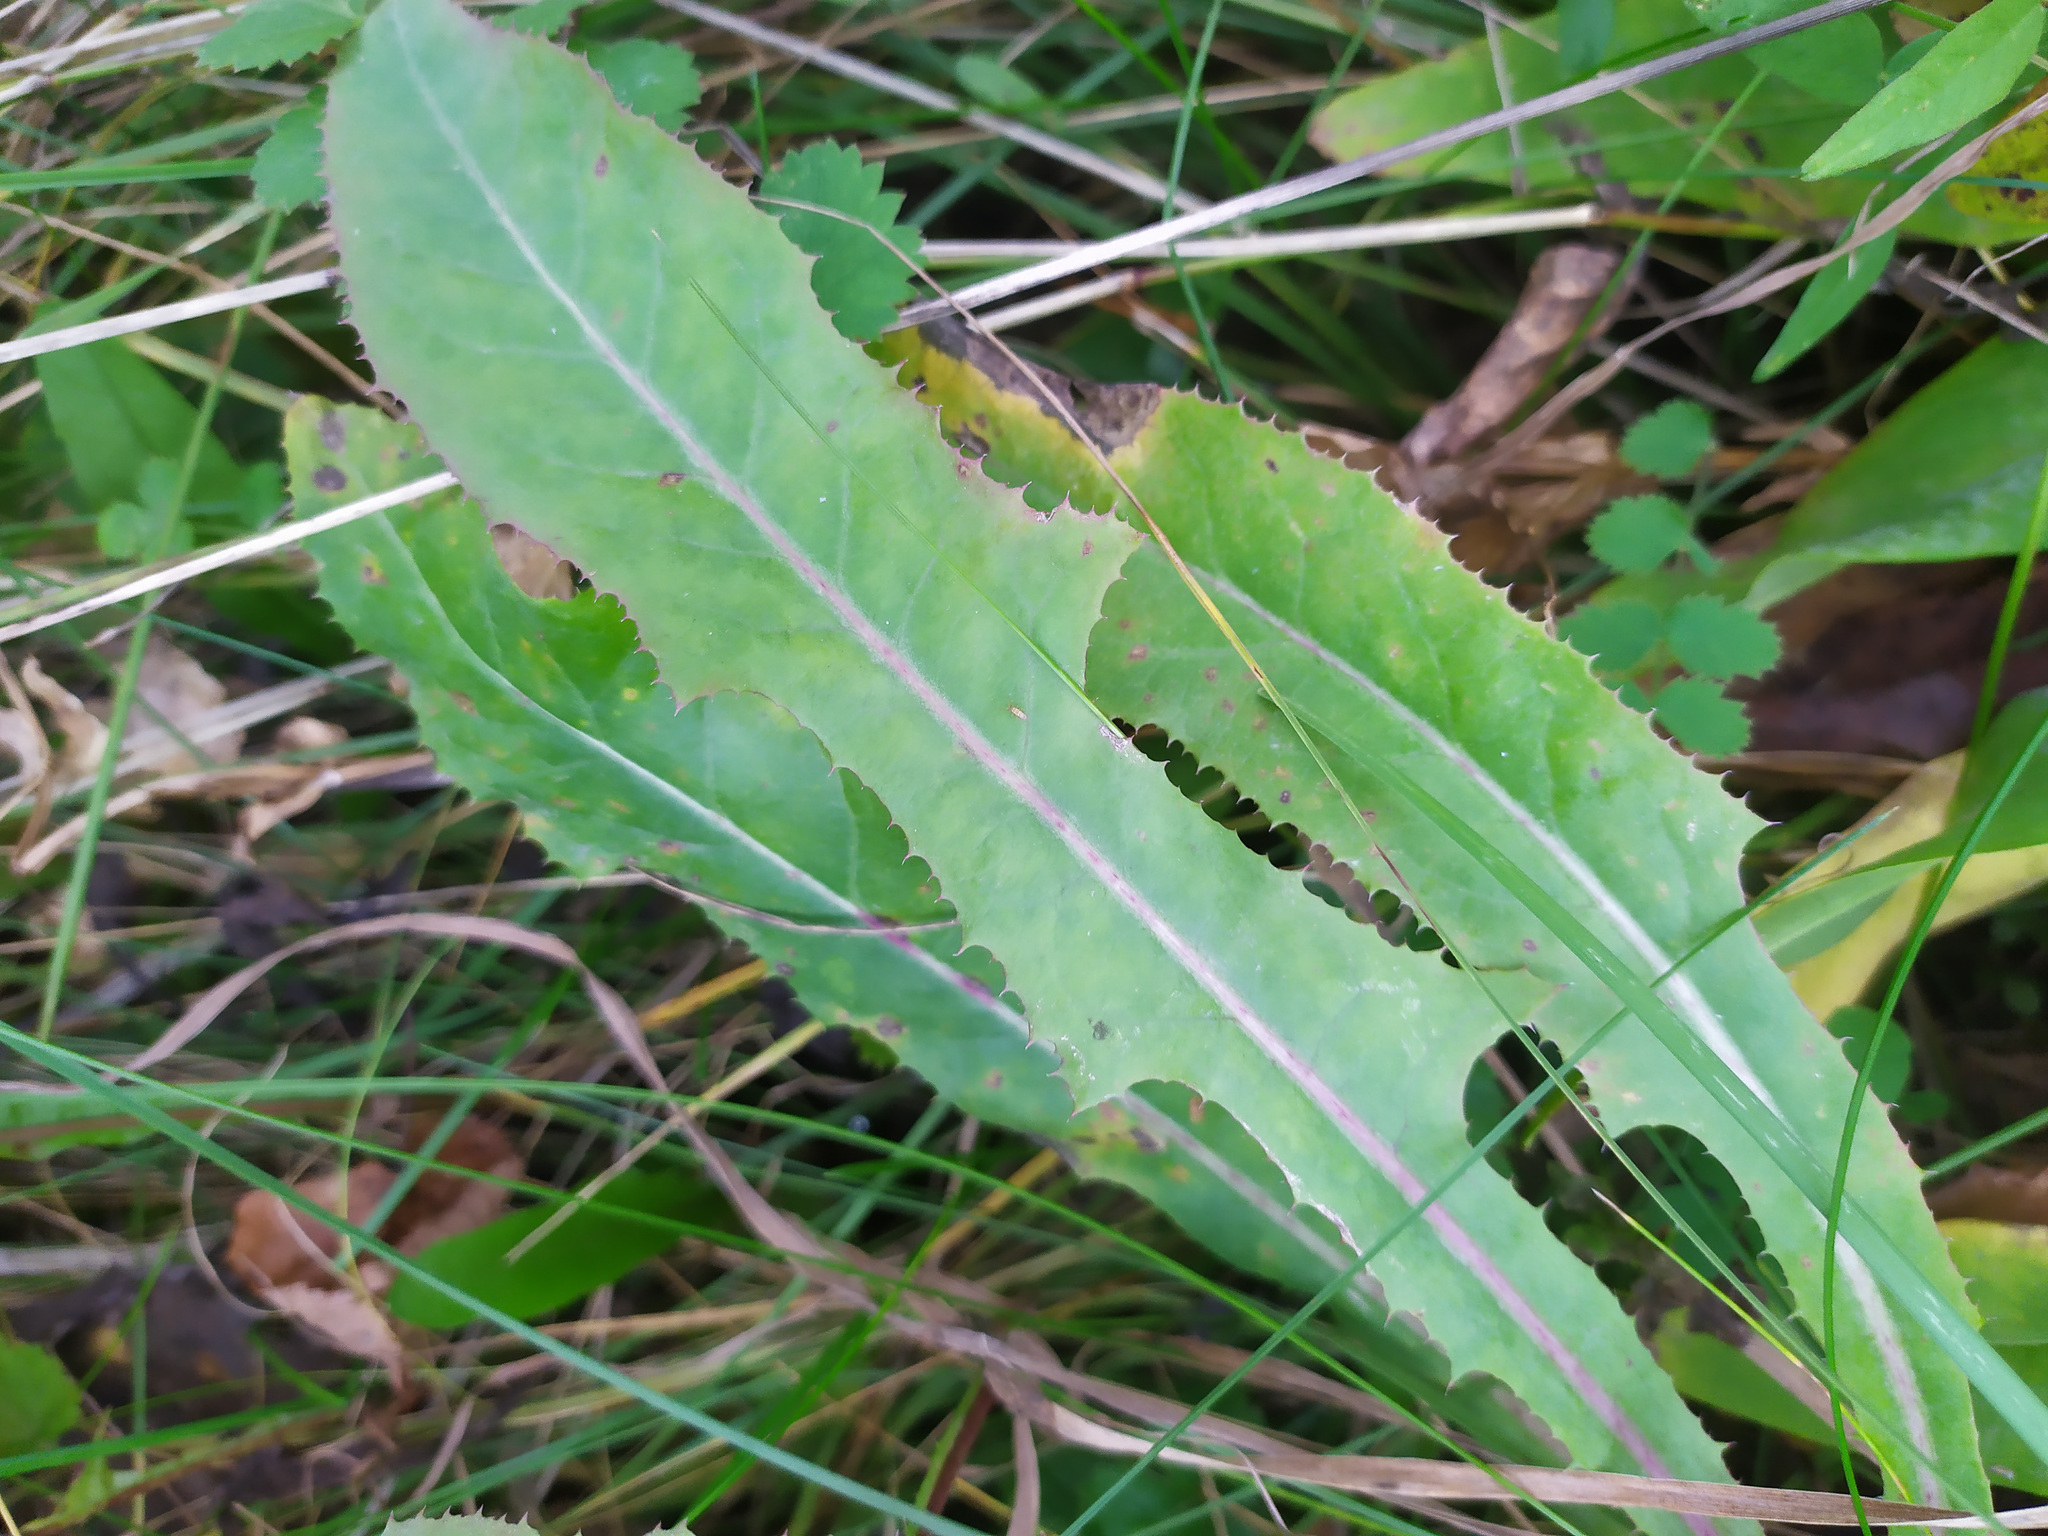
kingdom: Plantae
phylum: Tracheophyta
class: Magnoliopsida
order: Asterales
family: Asteraceae
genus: Sonchus
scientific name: Sonchus arvensis
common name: Perennial sow-thistle
